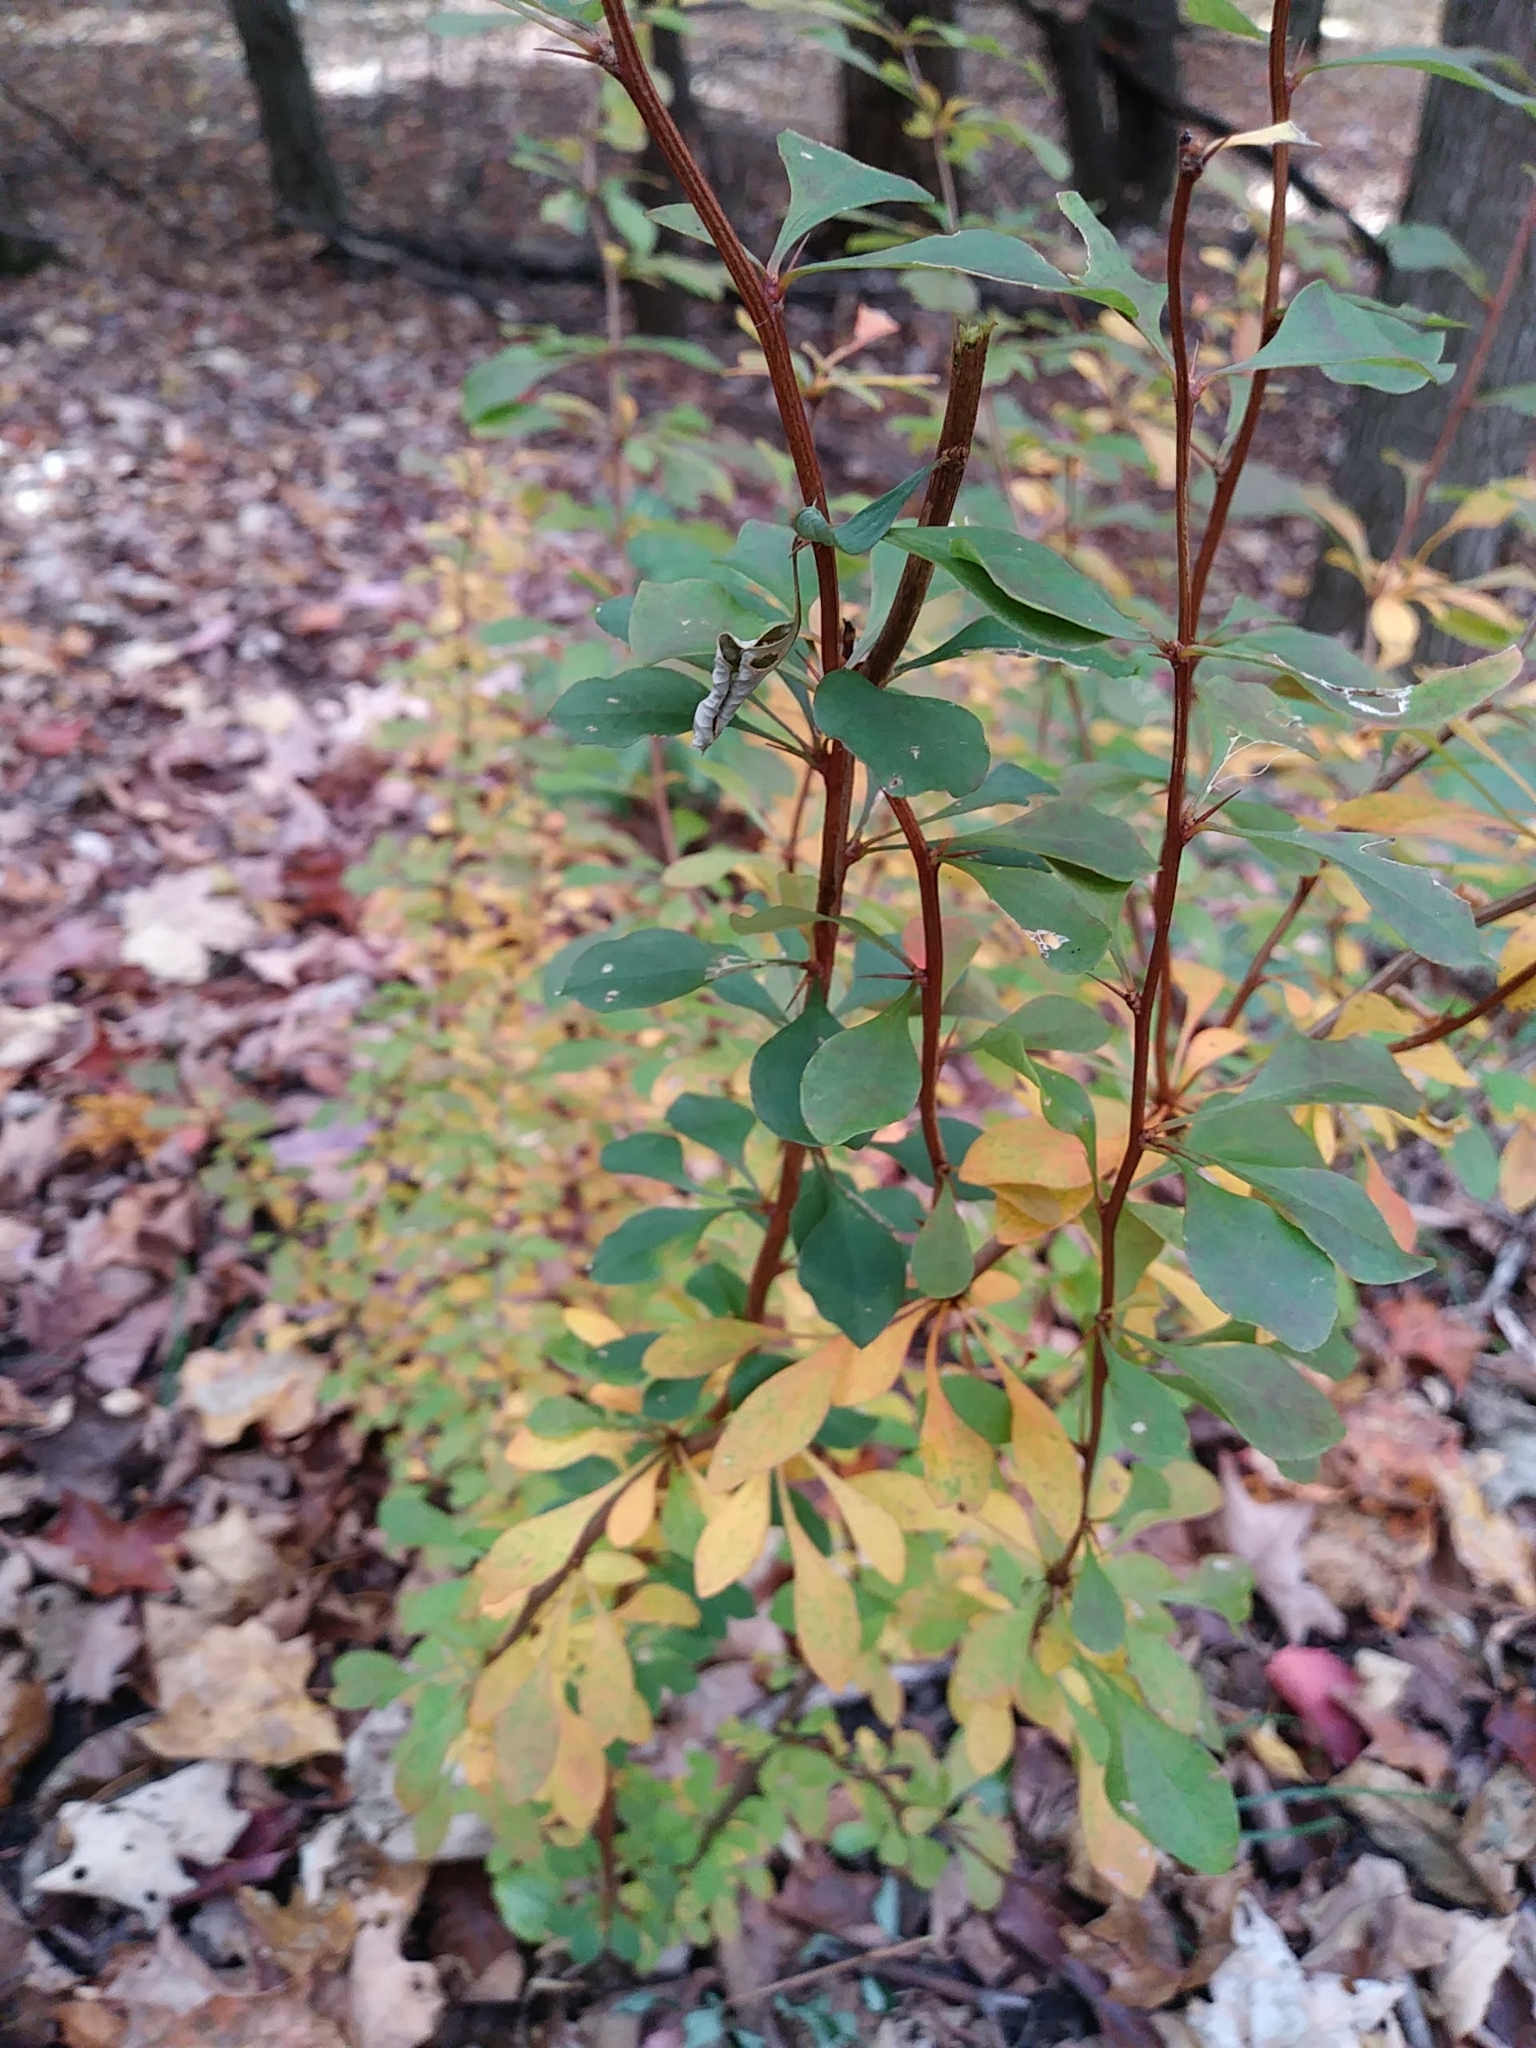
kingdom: Plantae
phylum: Tracheophyta
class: Magnoliopsida
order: Ranunculales
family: Berberidaceae
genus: Berberis
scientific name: Berberis thunbergii
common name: Japanese barberry
